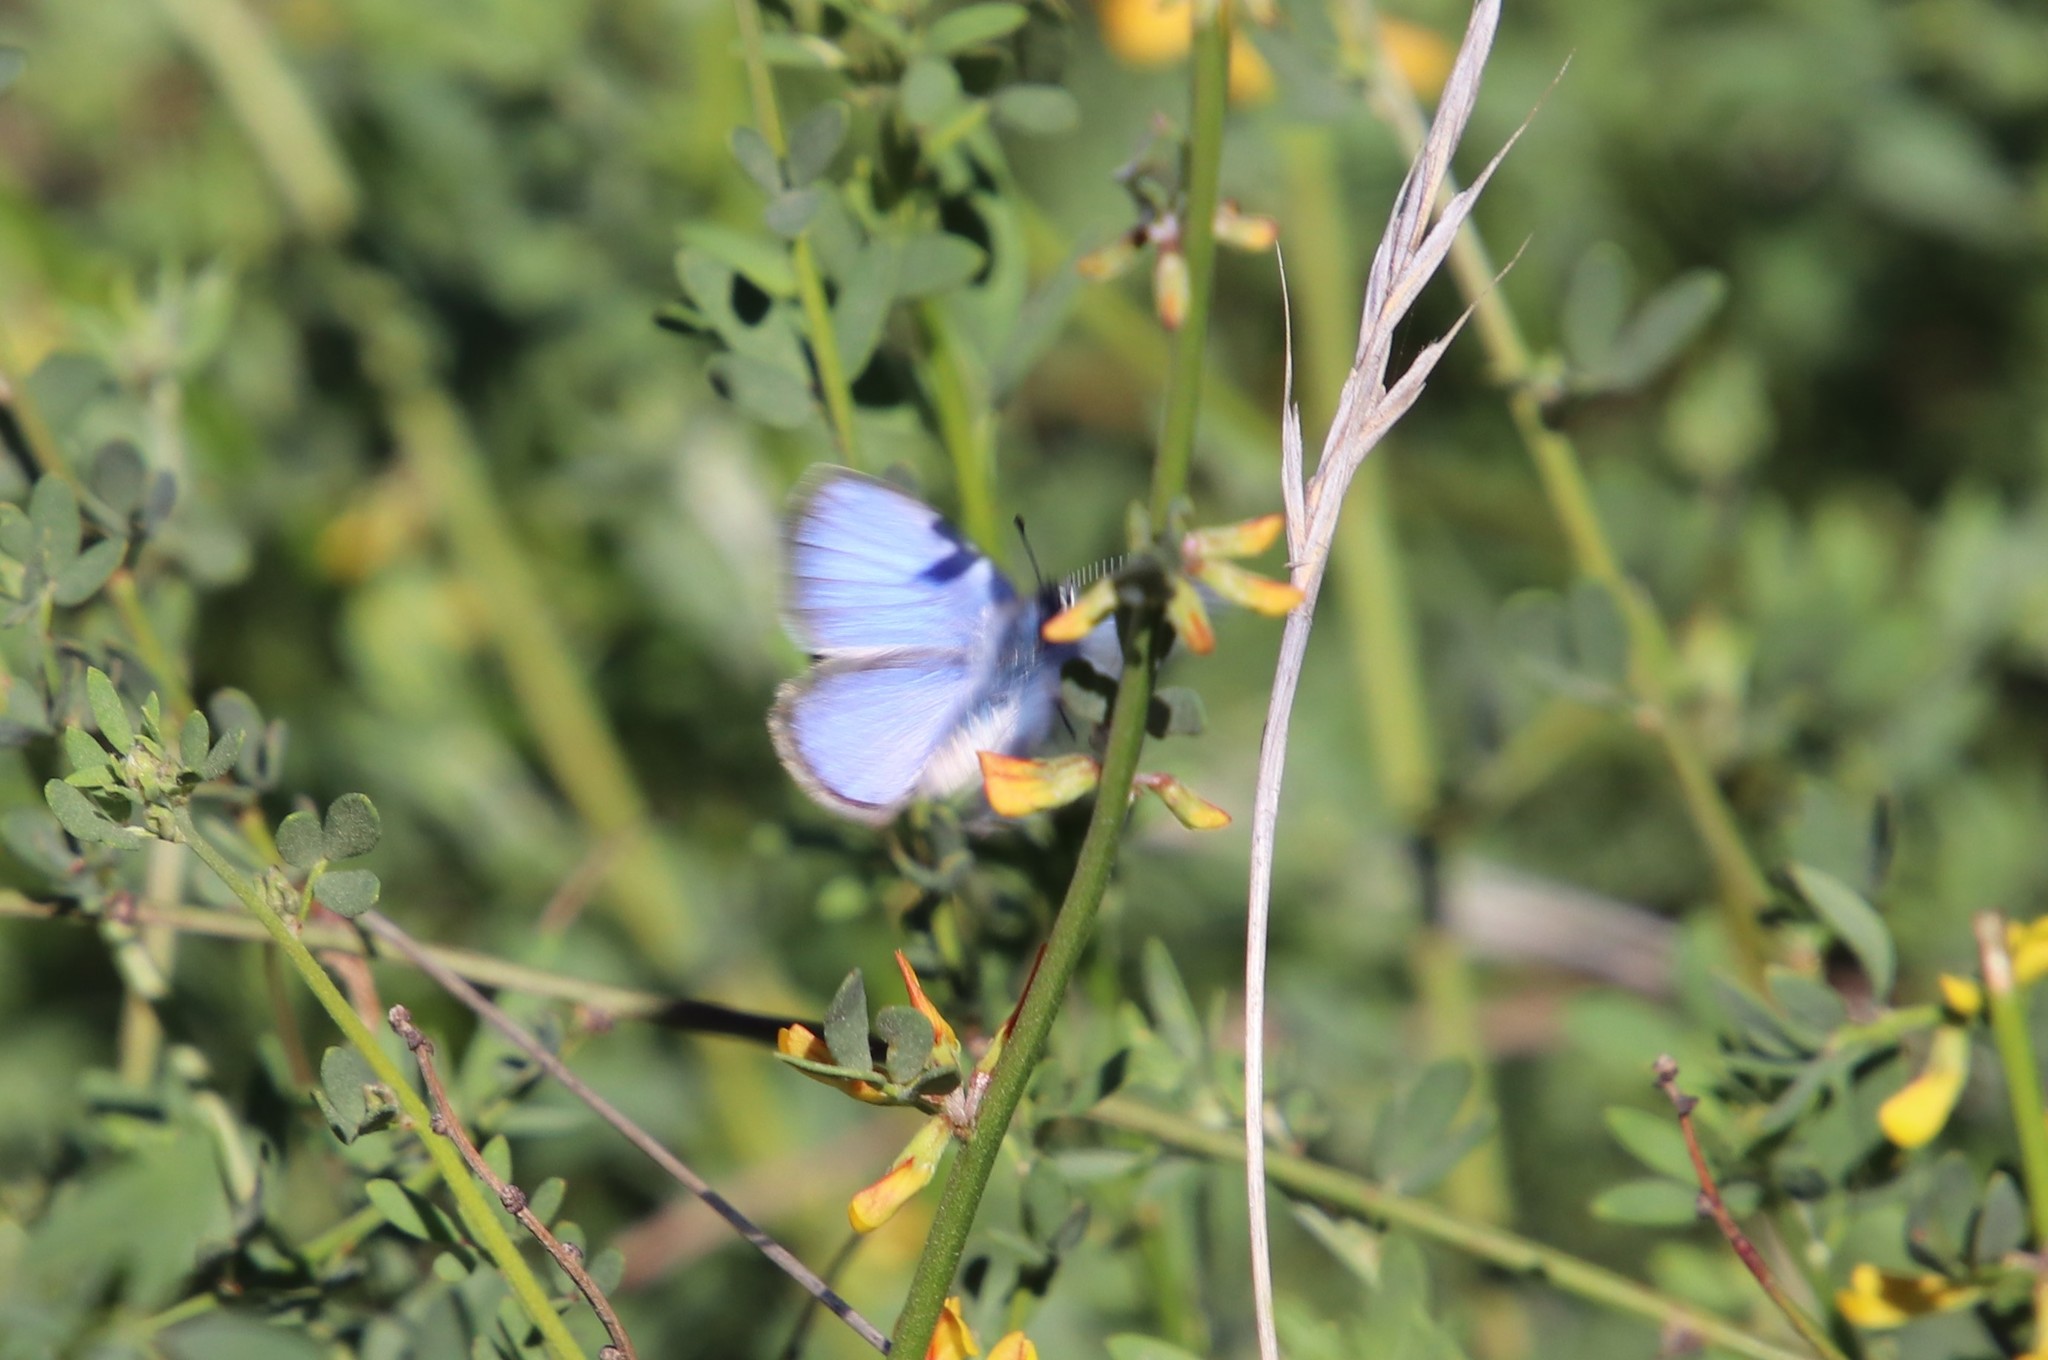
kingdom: Animalia
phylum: Arthropoda
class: Insecta
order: Lepidoptera
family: Lycaenidae
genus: Glaucopsyche
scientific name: Glaucopsyche lygdamus
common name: Silvery blue
